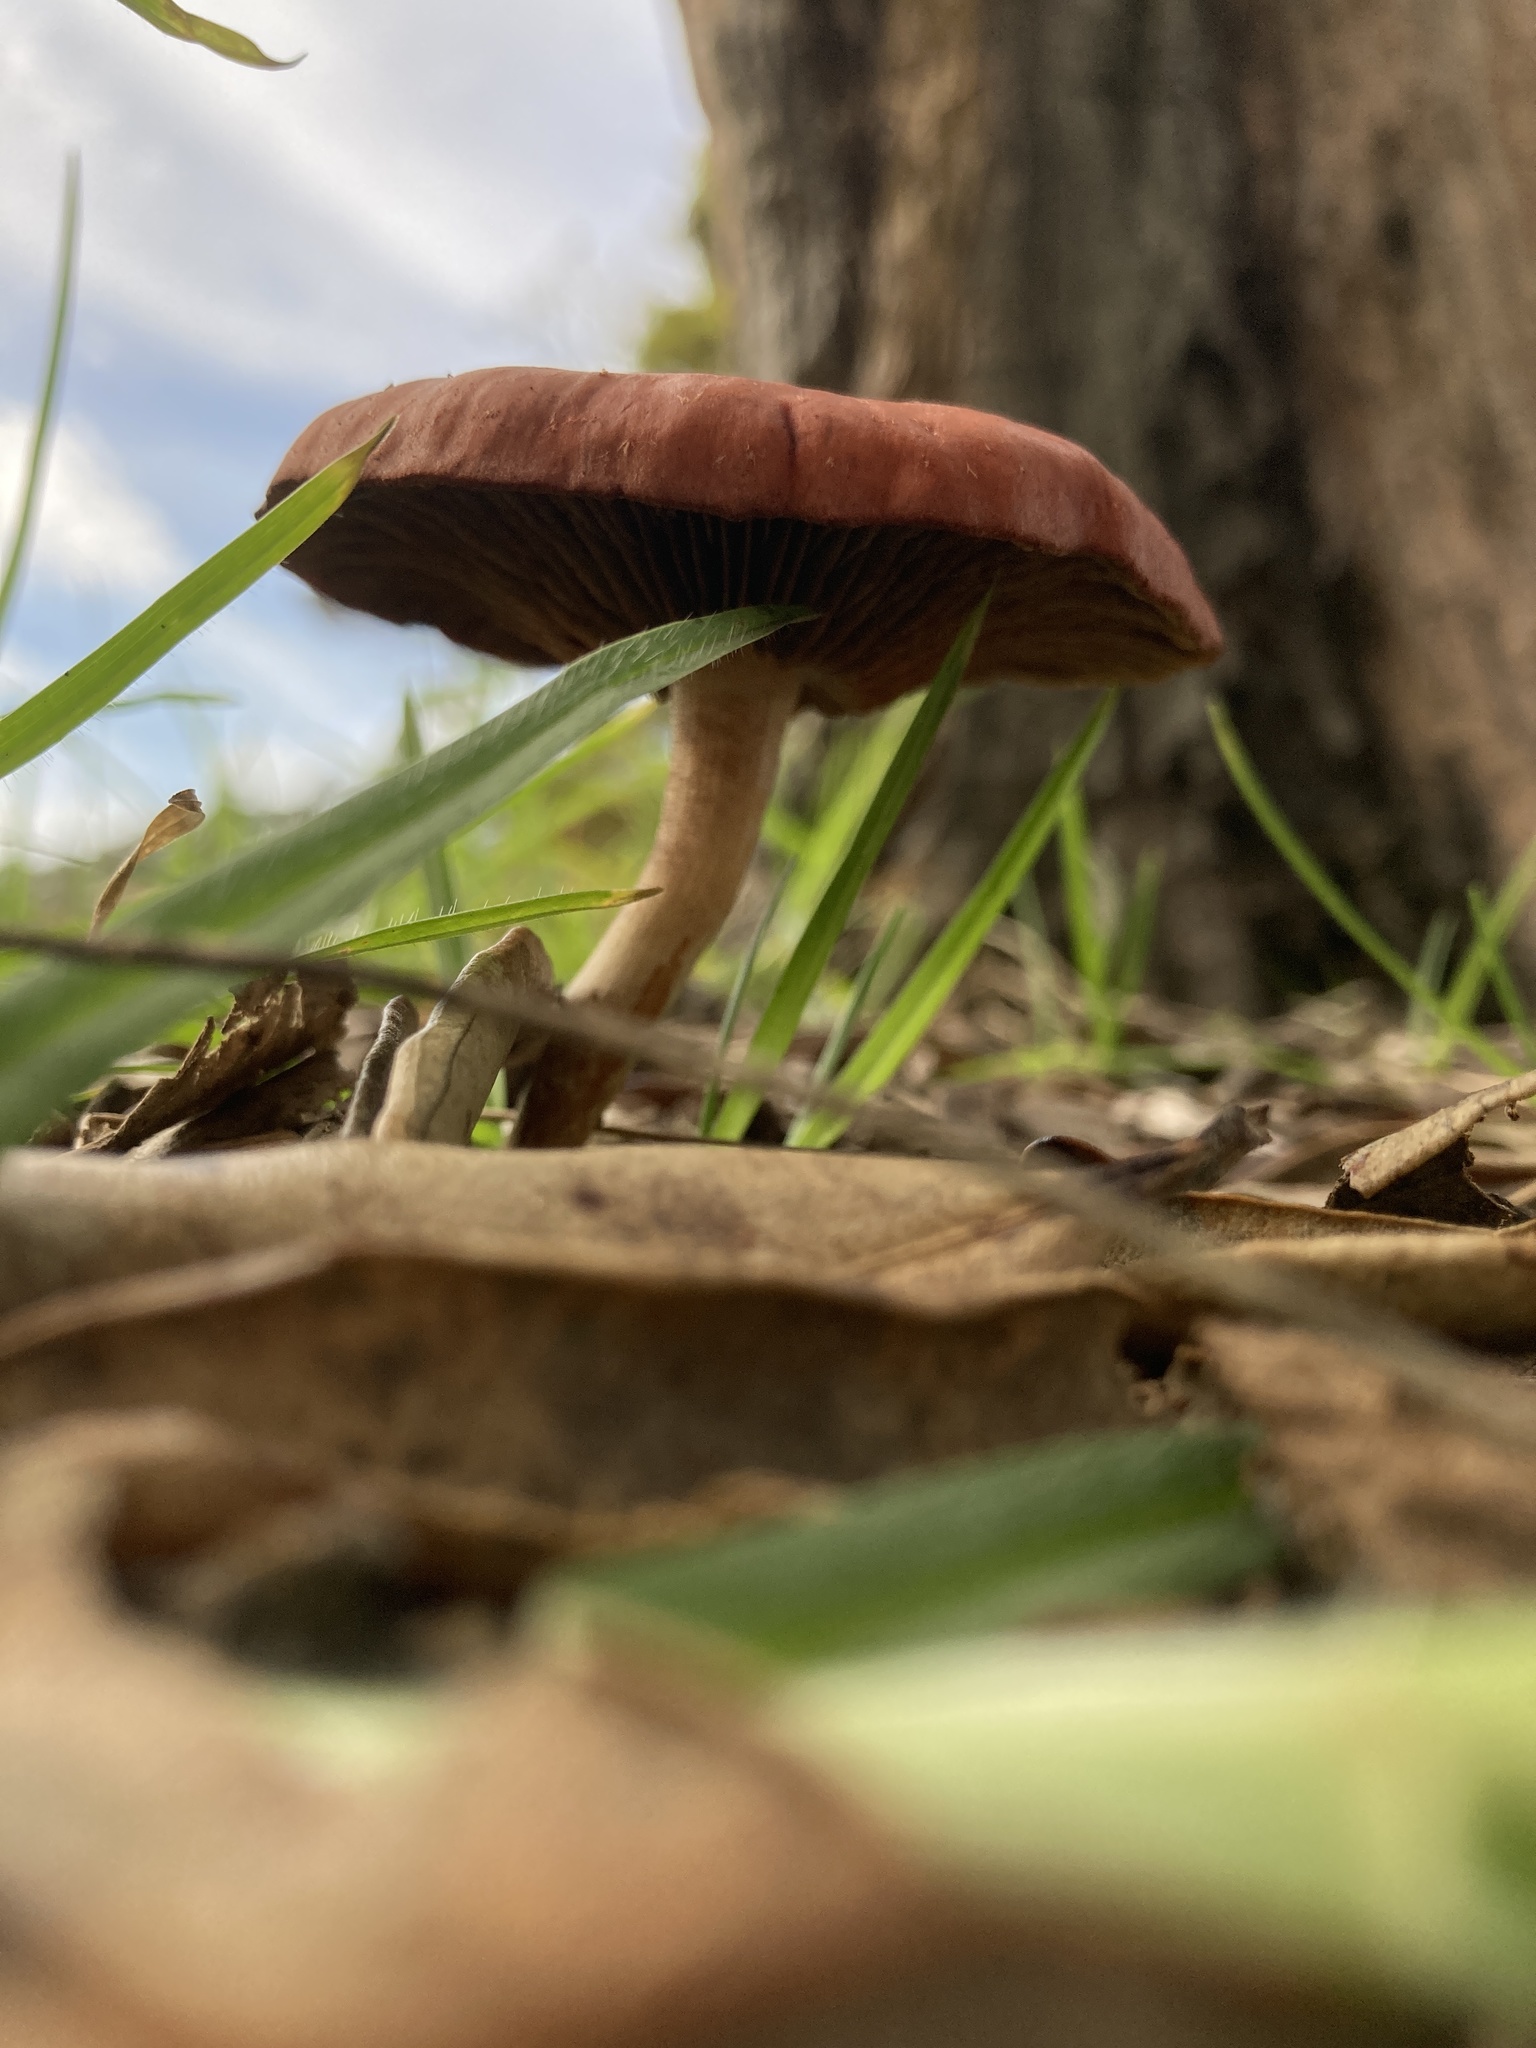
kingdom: Fungi
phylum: Basidiomycota
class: Agaricomycetes
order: Agaricales
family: Strophariaceae
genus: Leratiomyces
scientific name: Leratiomyces ceres
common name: Redlead roundhead
